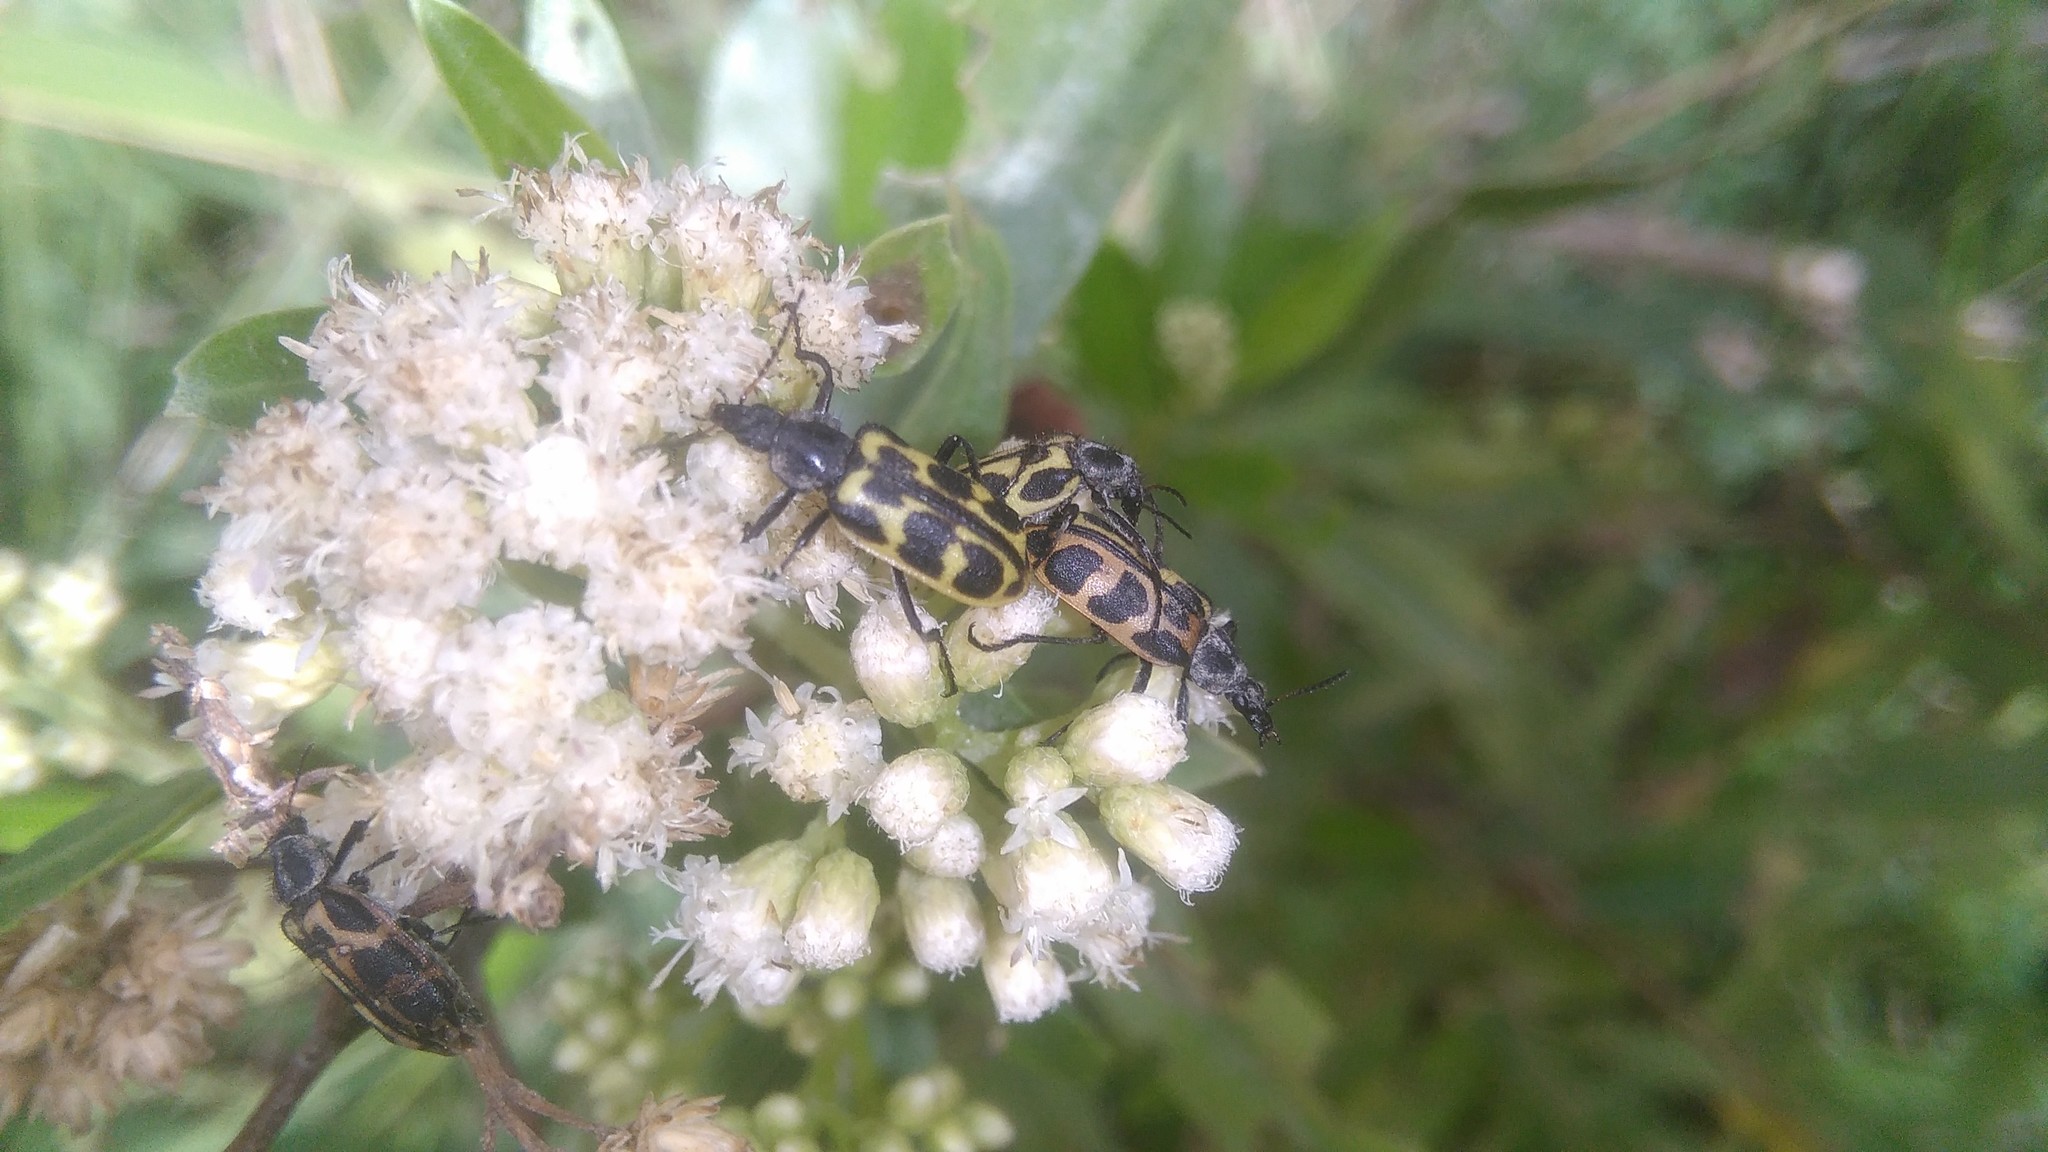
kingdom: Animalia
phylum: Arthropoda
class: Insecta
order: Coleoptera
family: Melyridae
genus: Astylus
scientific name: Astylus atromaculatus
